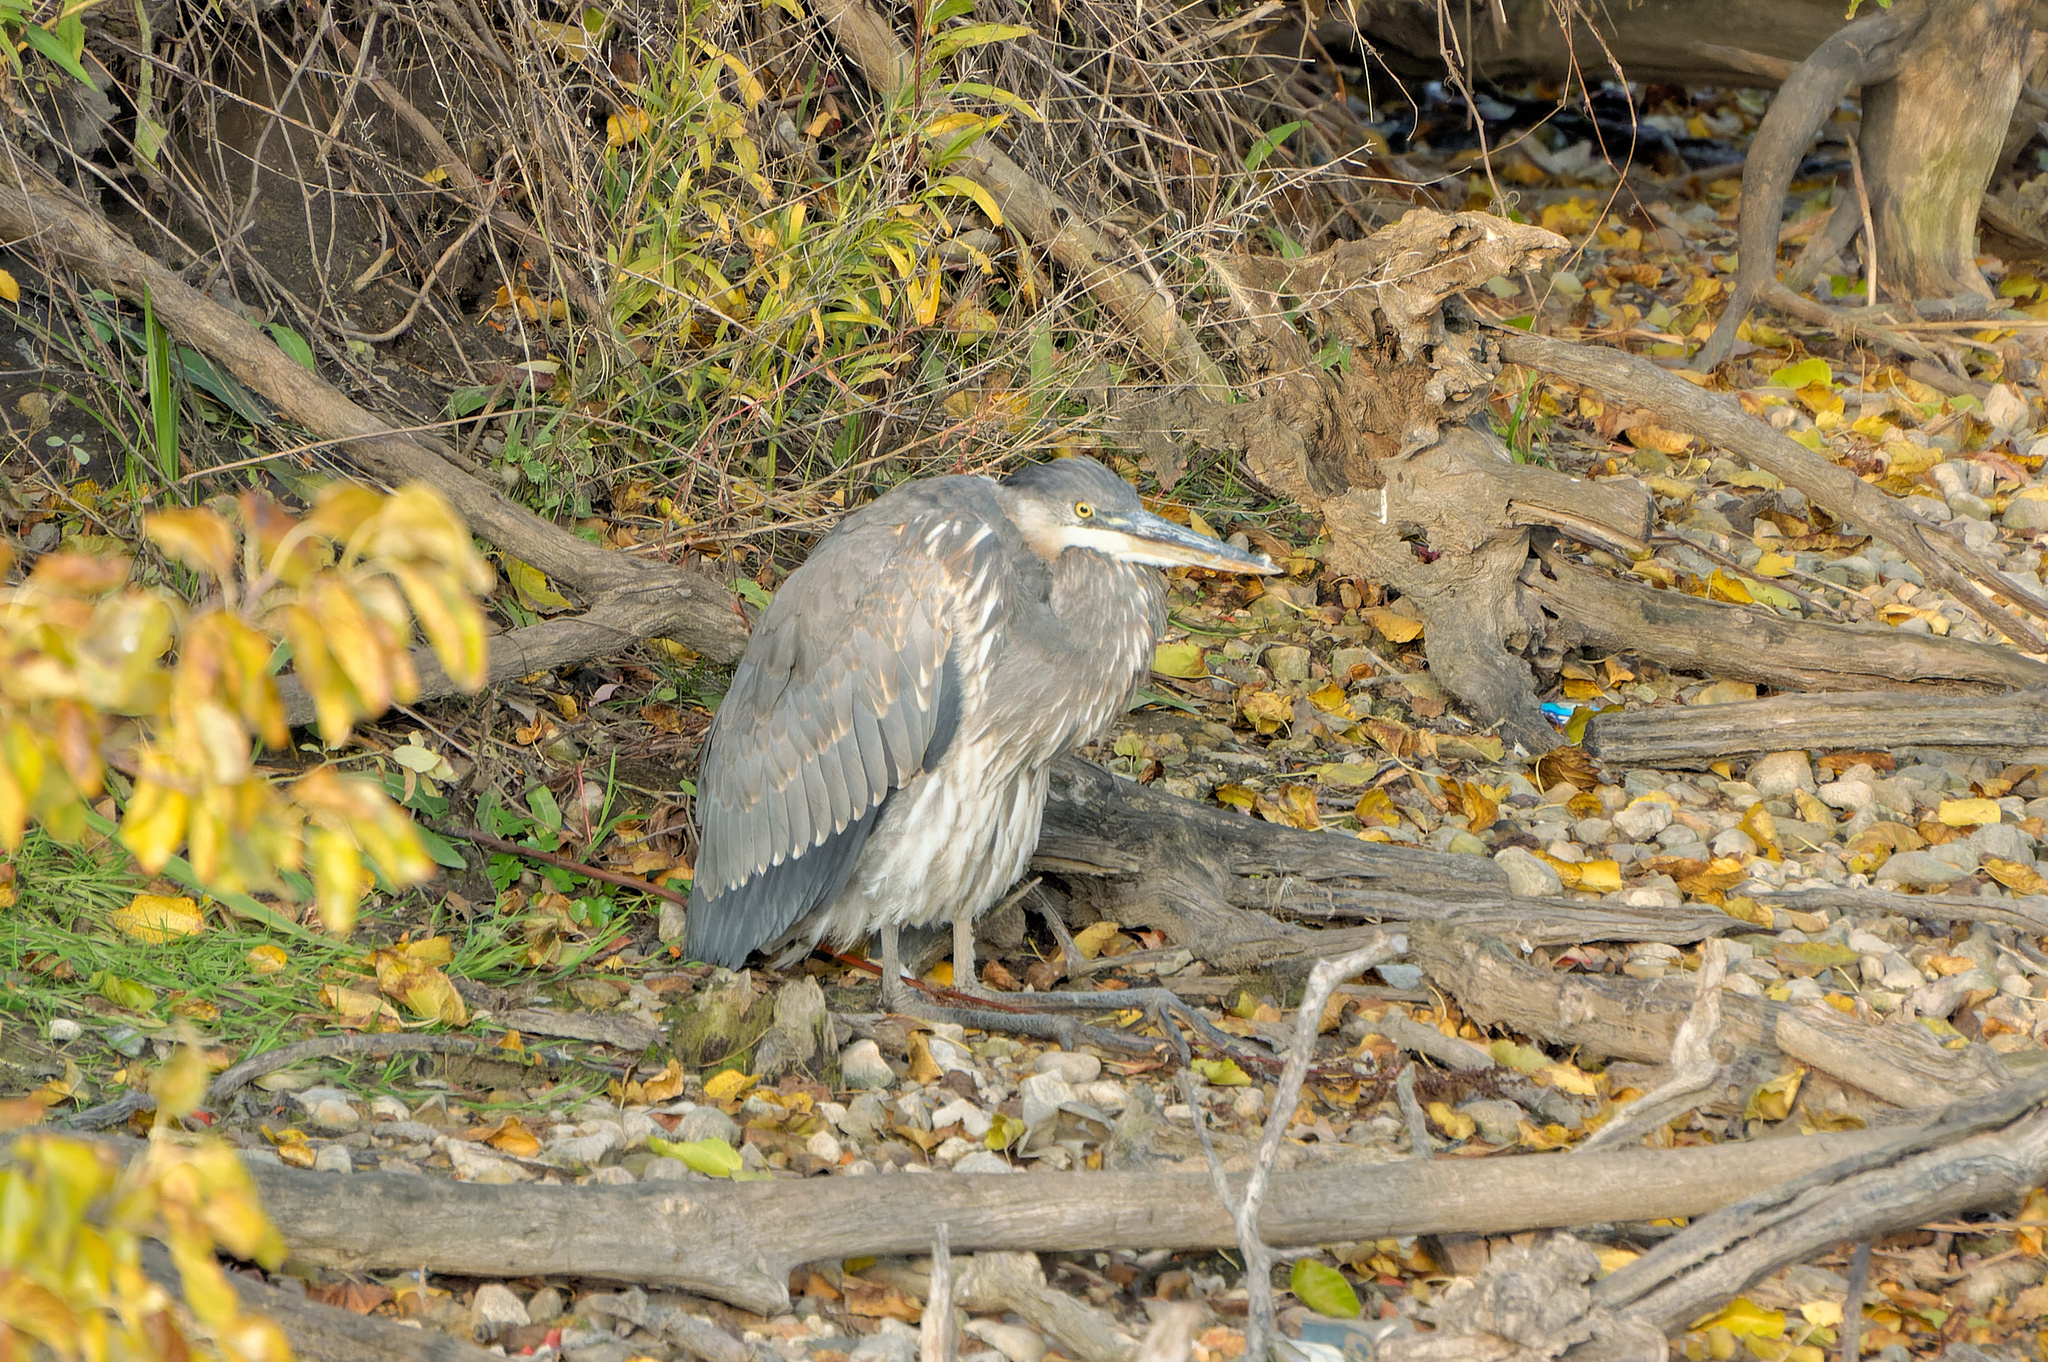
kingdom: Animalia
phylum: Chordata
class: Aves
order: Pelecaniformes
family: Ardeidae
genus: Ardea
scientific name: Ardea herodias
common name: Great blue heron
